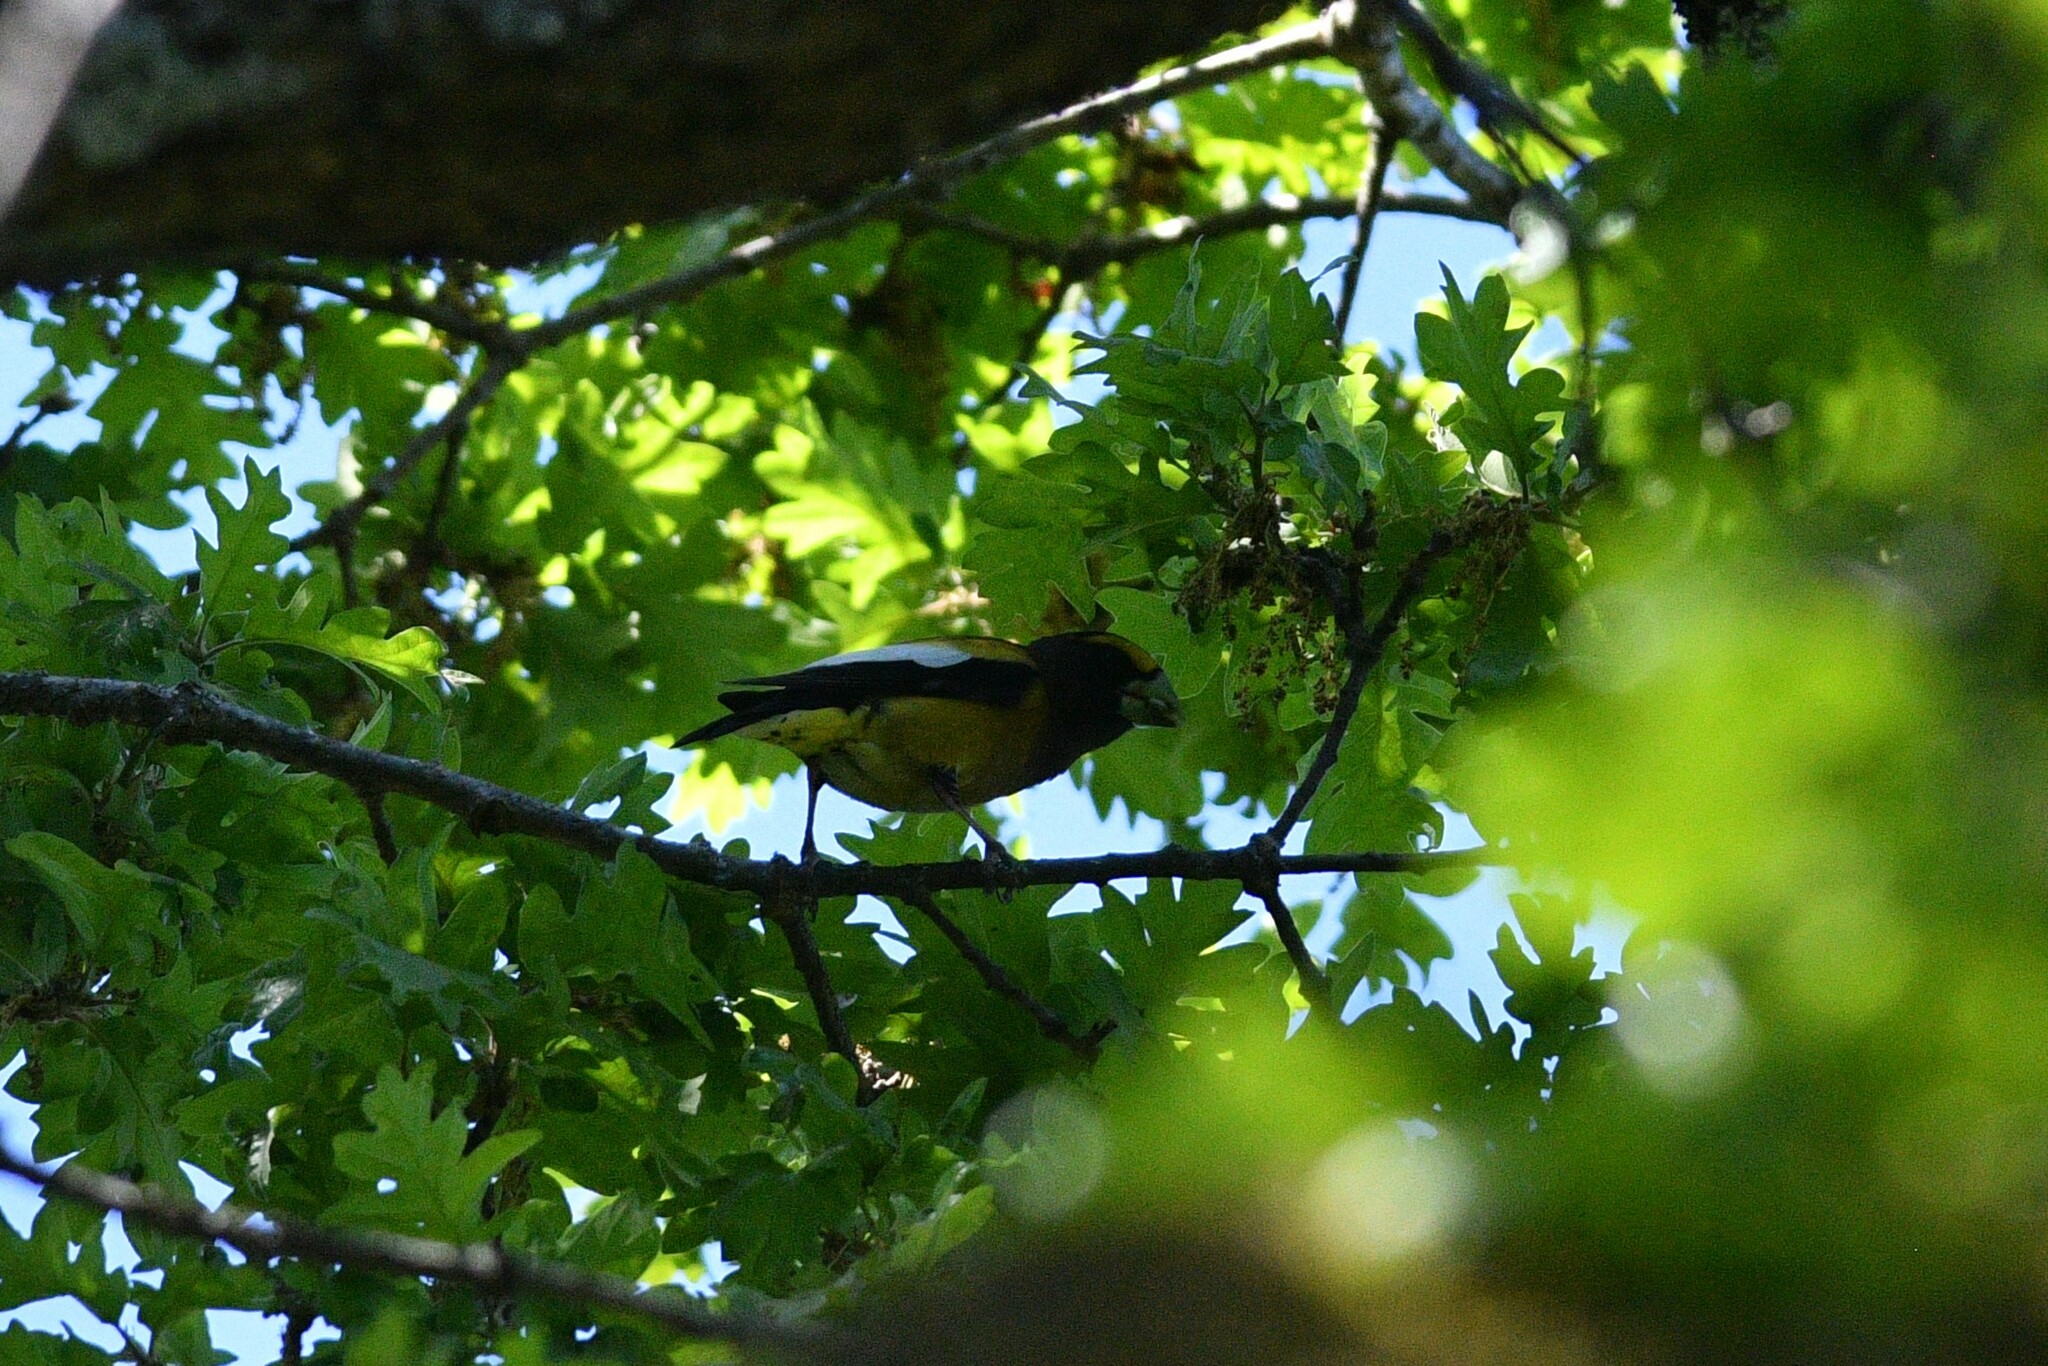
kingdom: Animalia
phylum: Chordata
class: Aves
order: Passeriformes
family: Fringillidae
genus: Hesperiphona
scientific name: Hesperiphona vespertina
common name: Evening grosbeak
